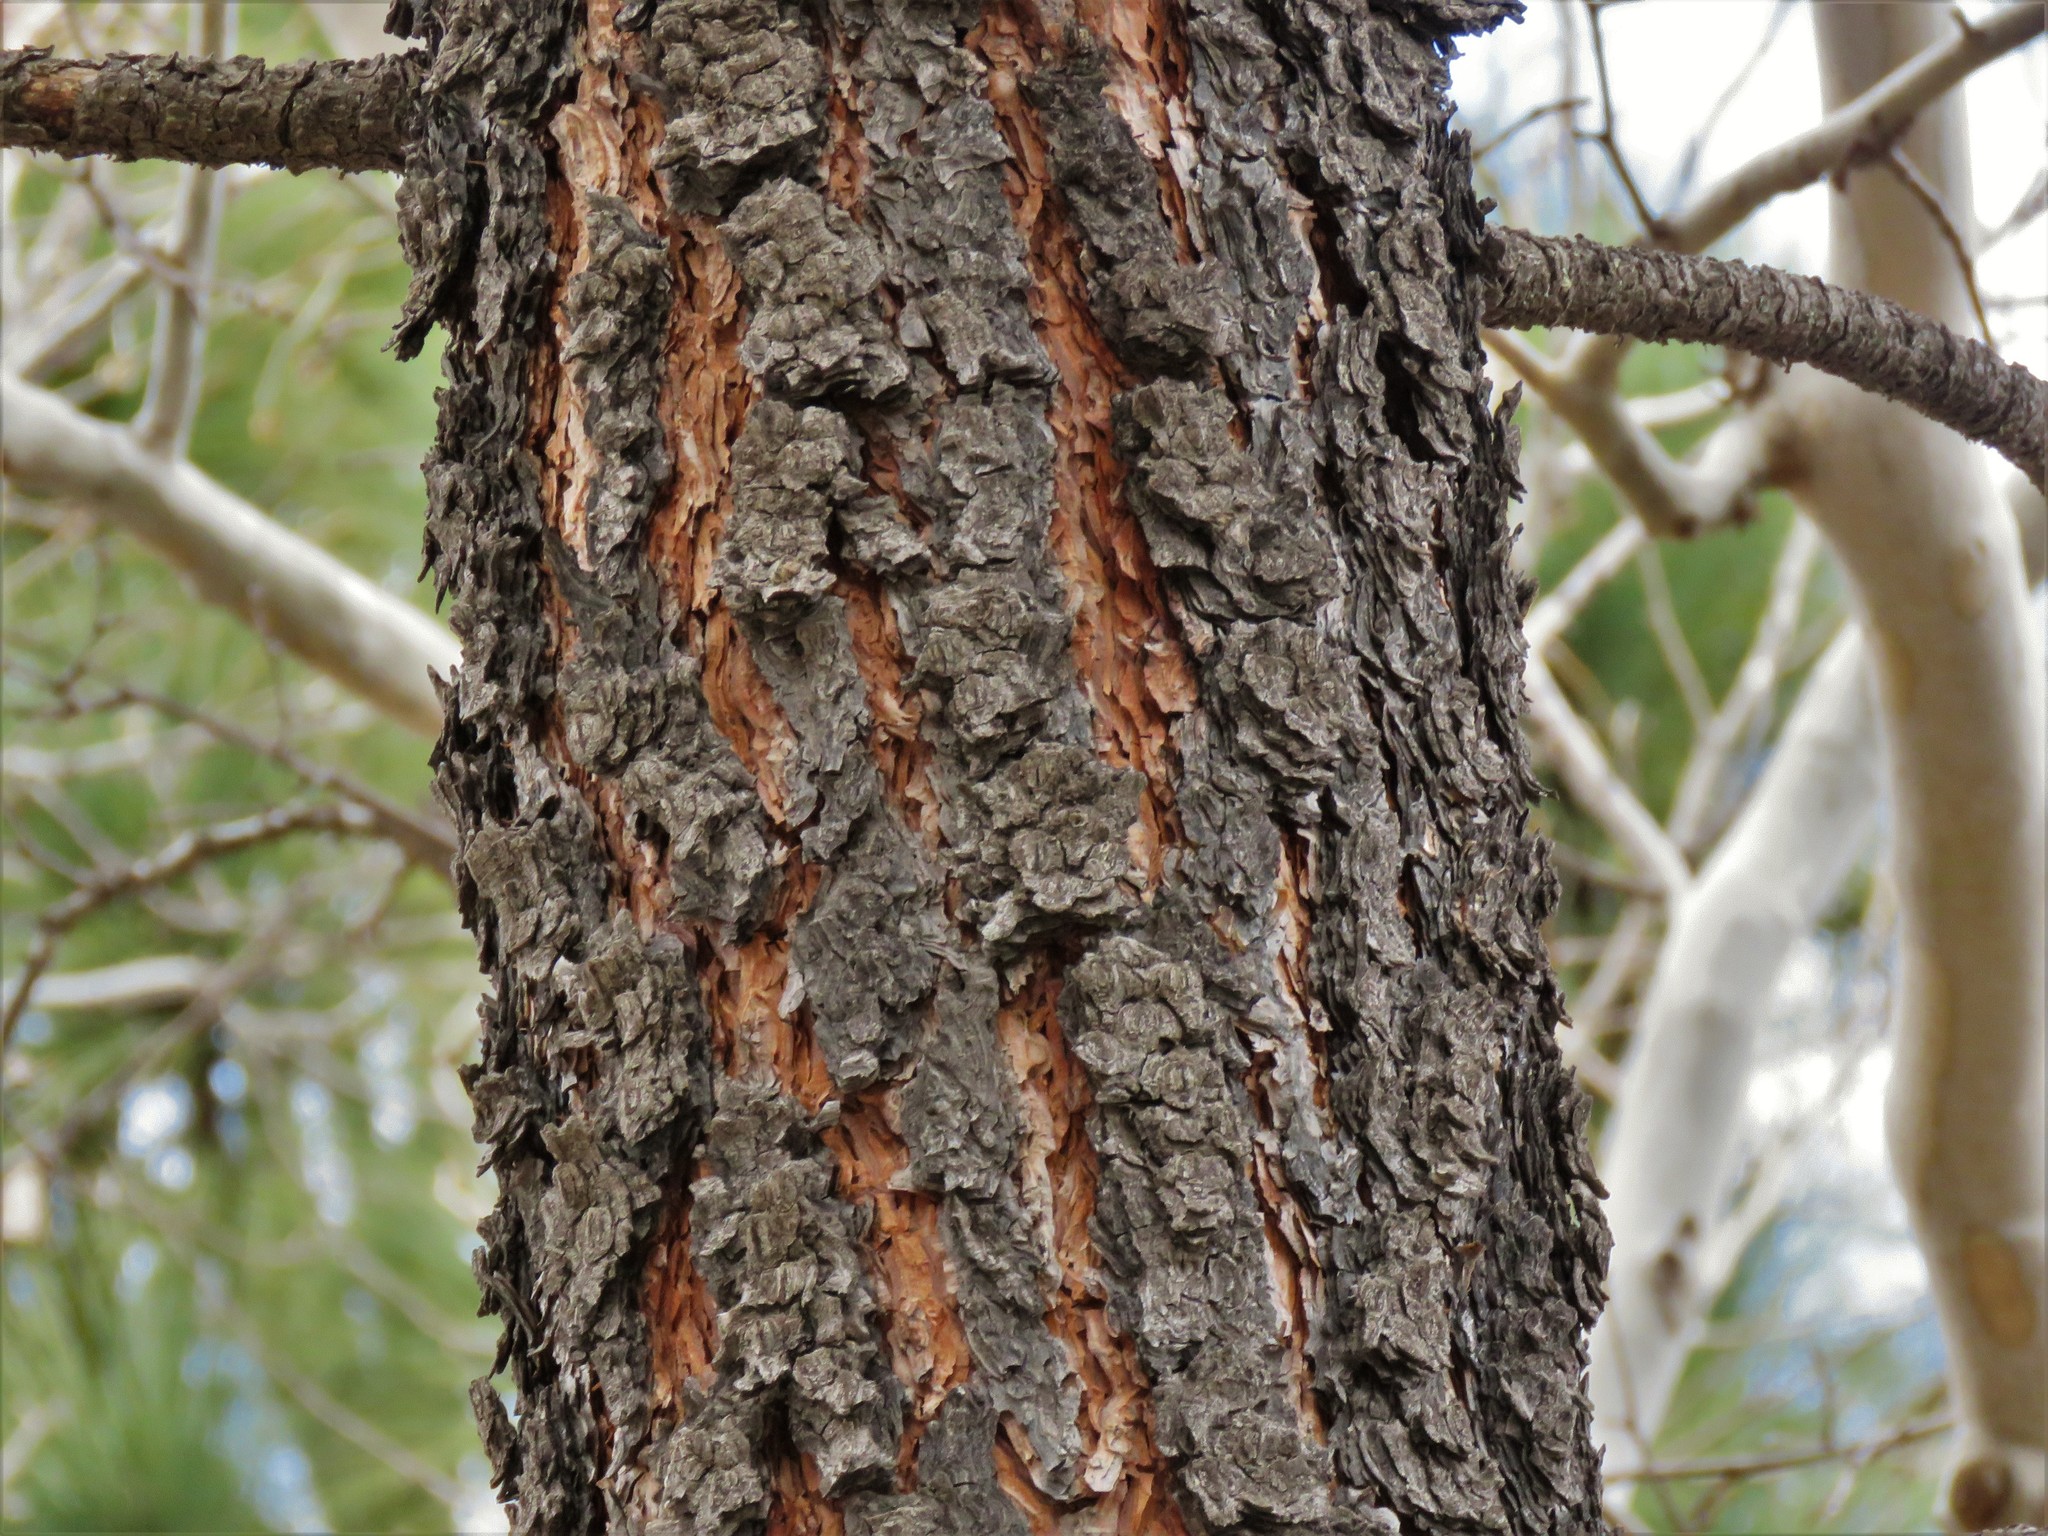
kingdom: Plantae
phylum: Tracheophyta
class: Pinopsida
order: Pinales
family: Pinaceae
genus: Pinus
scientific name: Pinus engelmannii
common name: Apache pine
